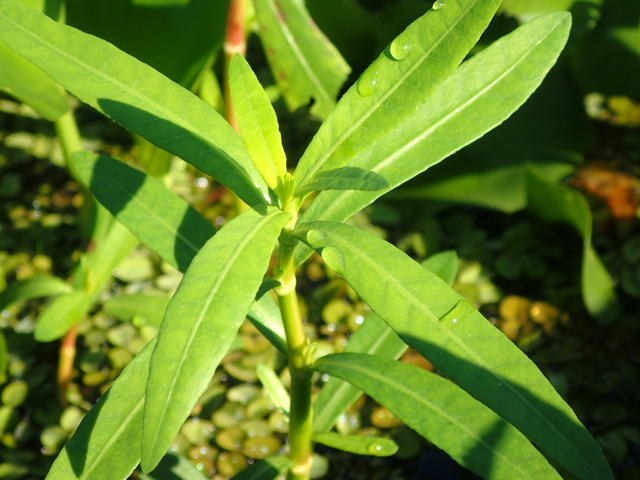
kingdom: Plantae
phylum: Tracheophyta
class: Magnoliopsida
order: Caryophyllales
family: Amaranthaceae
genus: Alternanthera
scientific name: Alternanthera philoxeroides
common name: Alligatorweed
